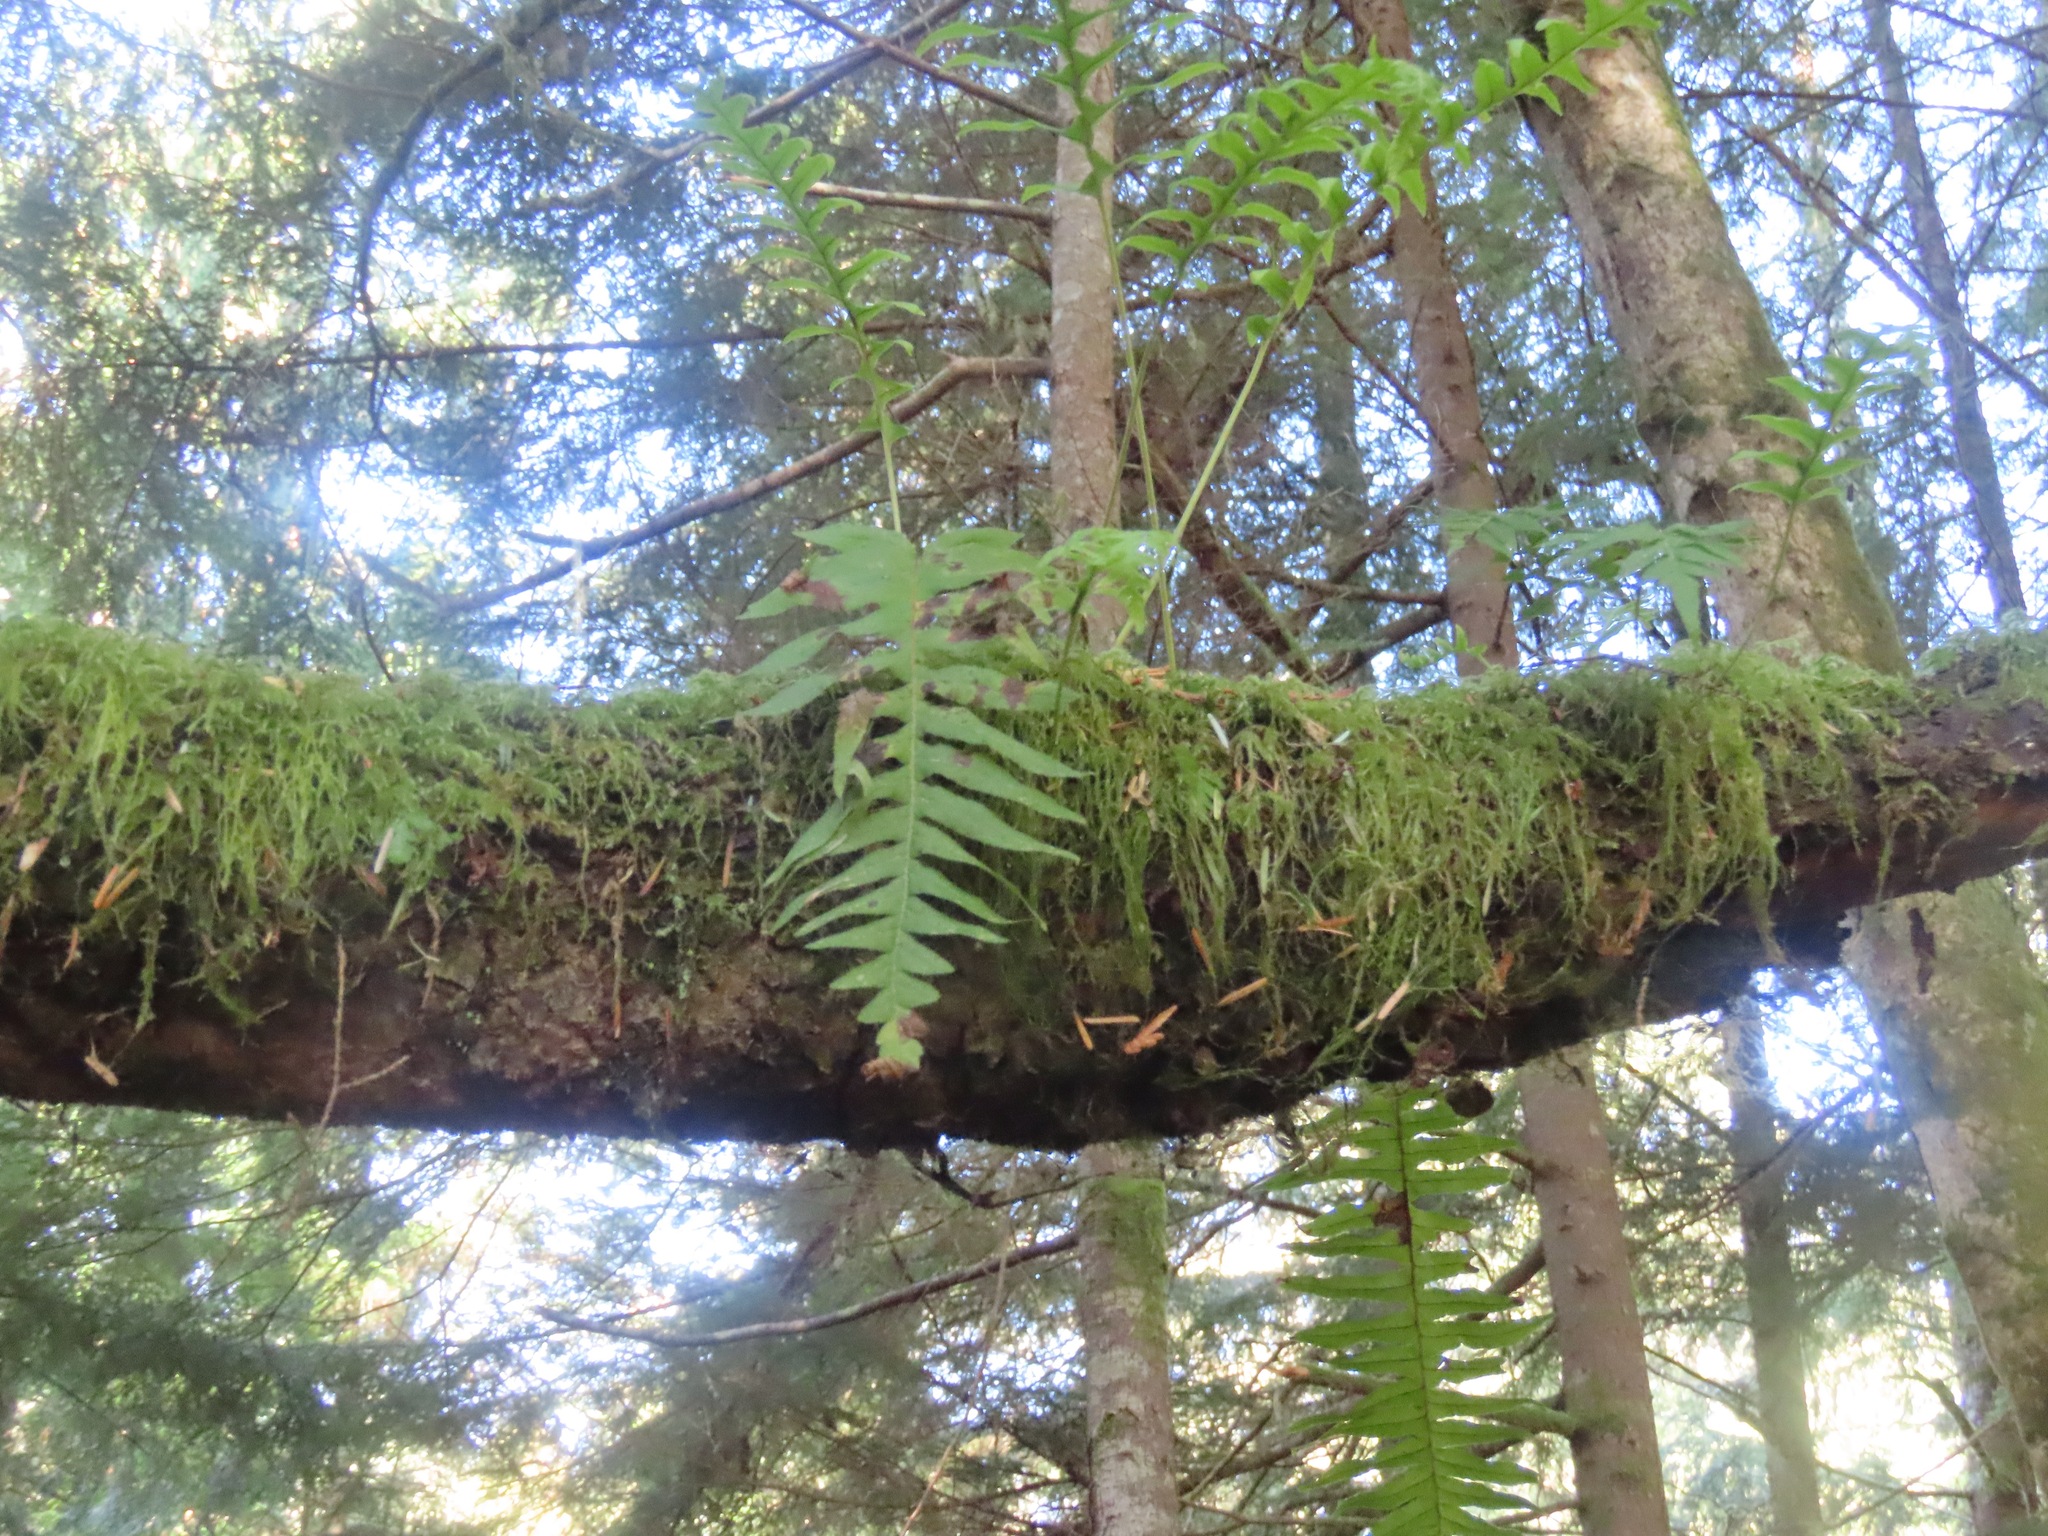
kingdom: Plantae
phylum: Tracheophyta
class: Polypodiopsida
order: Polypodiales
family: Polypodiaceae
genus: Polypodium
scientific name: Polypodium glycyrrhiza
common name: Licorice fern
